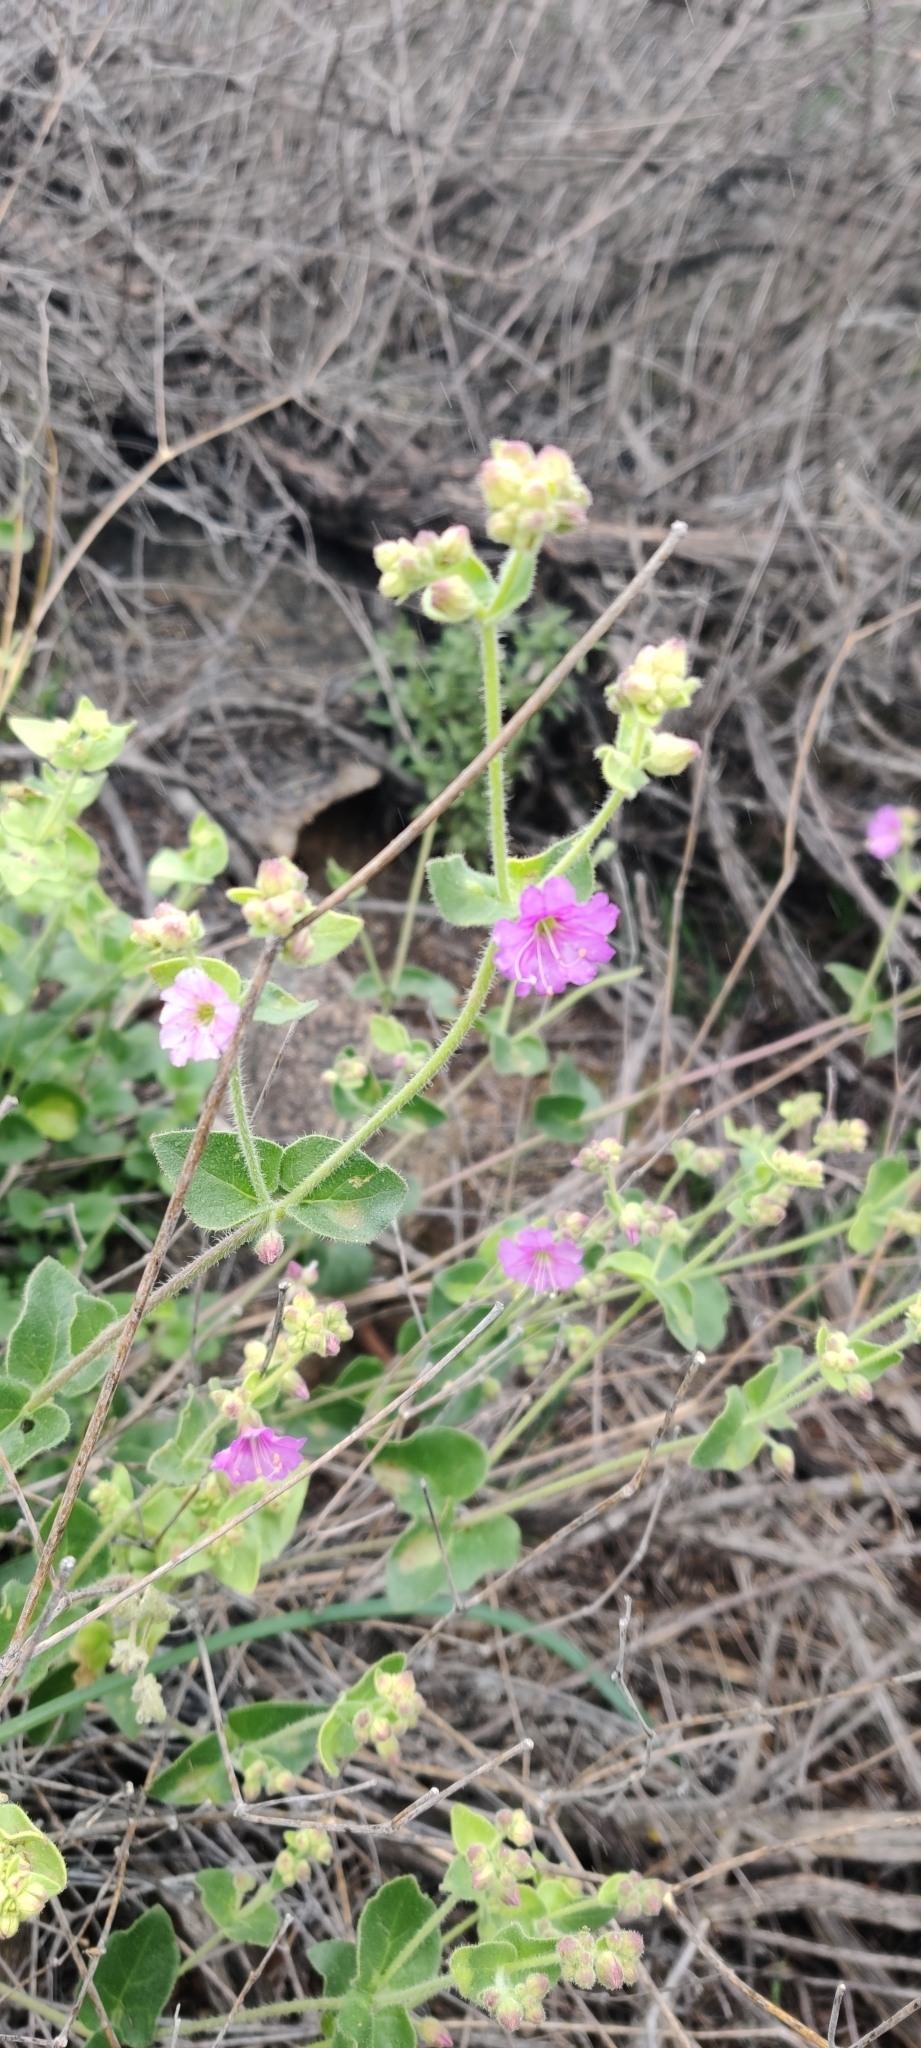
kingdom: Plantae
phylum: Tracheophyta
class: Magnoliopsida
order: Caryophyllales
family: Nyctaginaceae
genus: Mirabilis
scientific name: Mirabilis laevis
